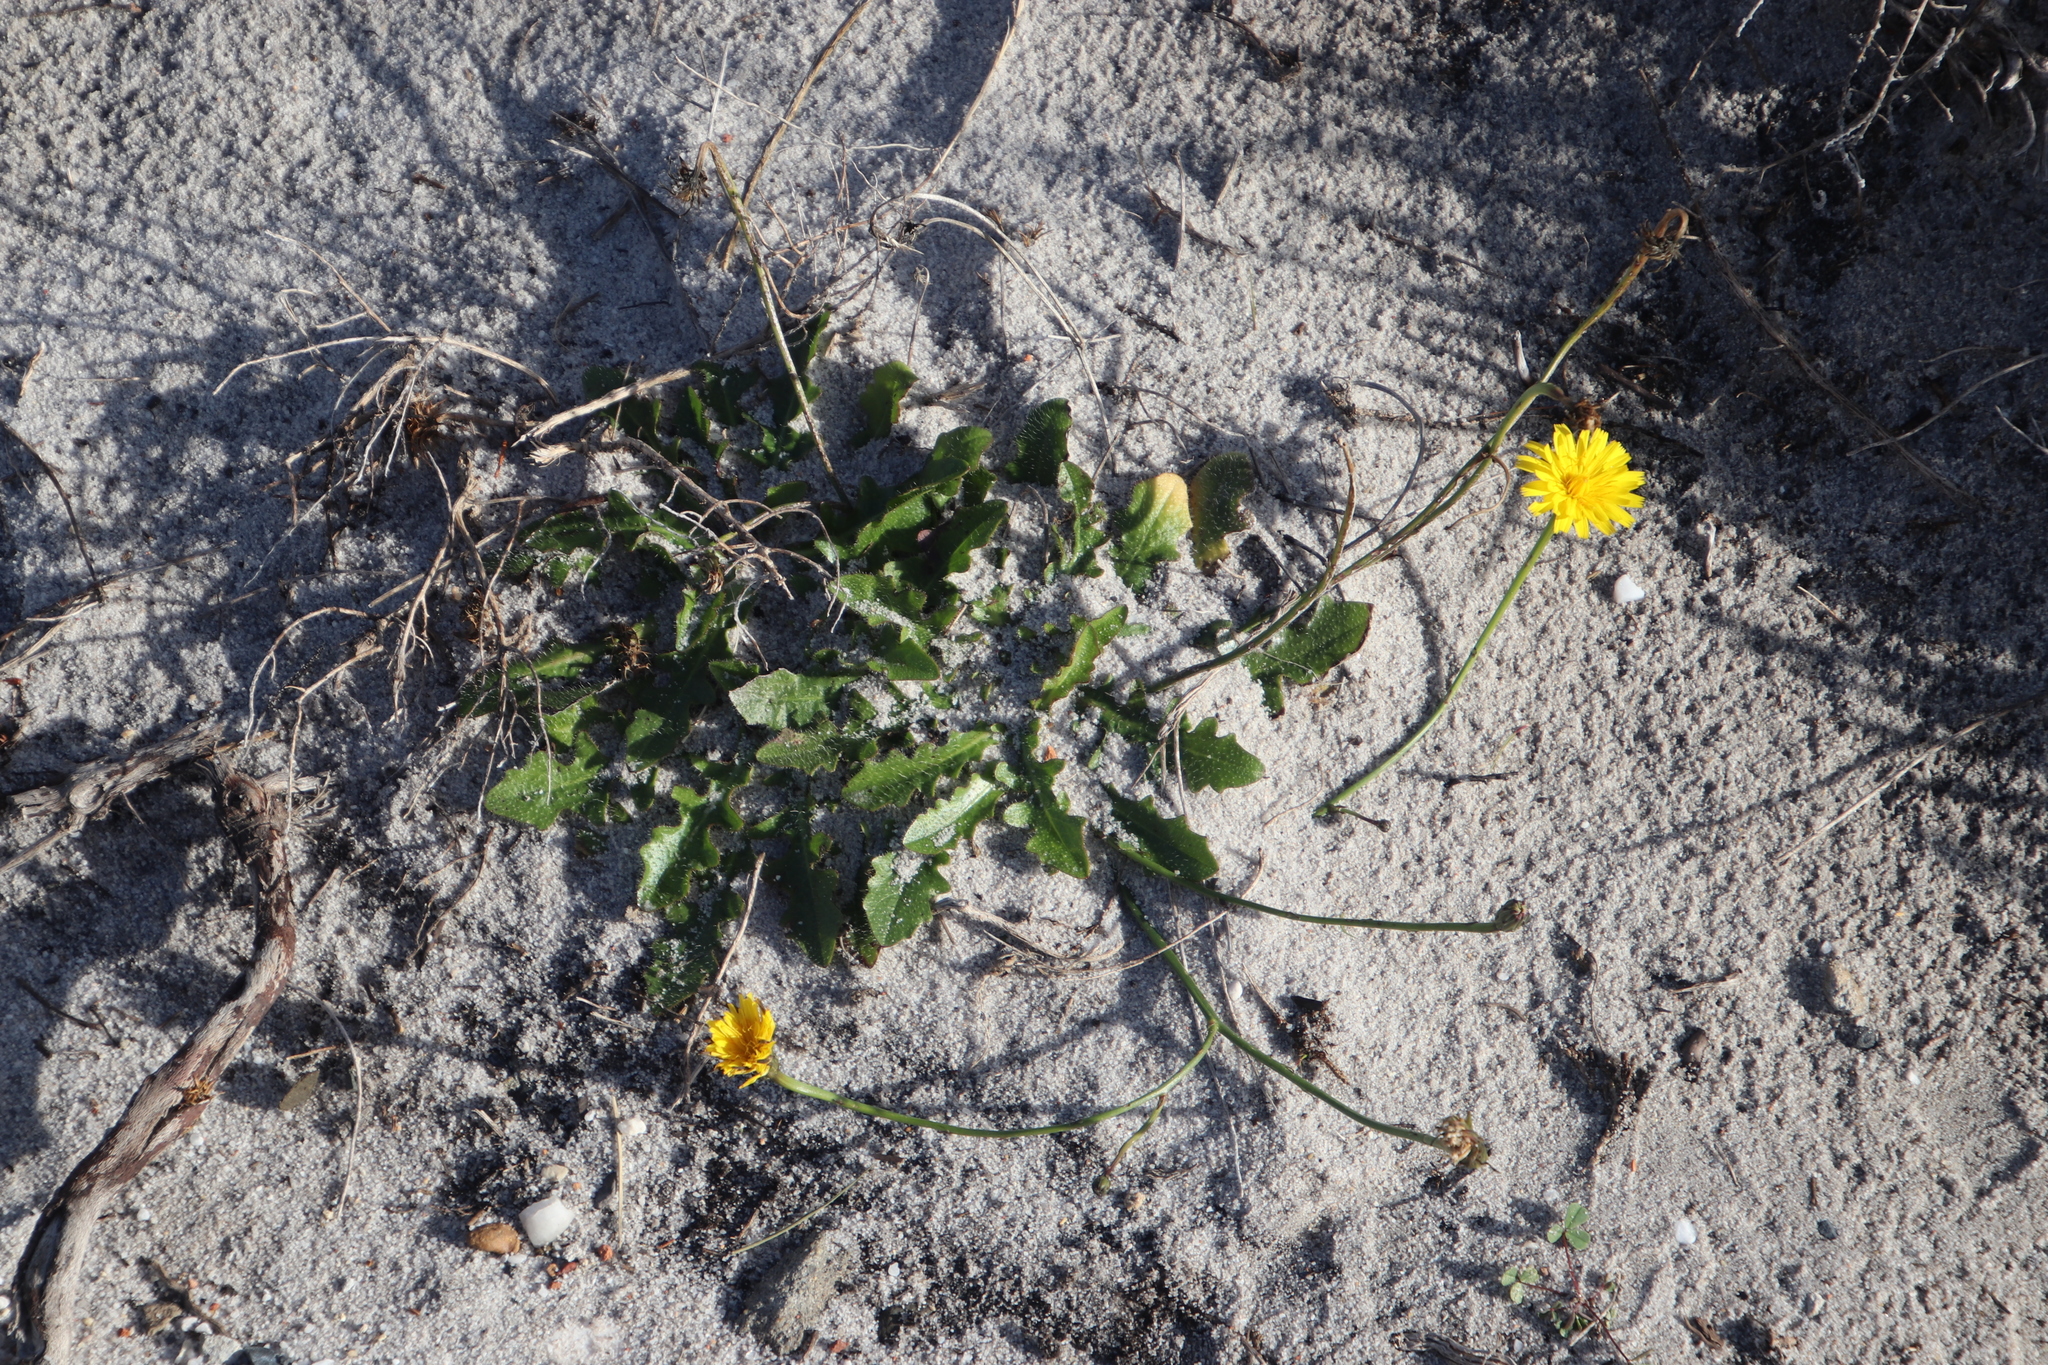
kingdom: Plantae
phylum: Tracheophyta
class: Magnoliopsida
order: Asterales
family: Asteraceae
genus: Hypochaeris
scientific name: Hypochaeris radicata
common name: Flatweed
